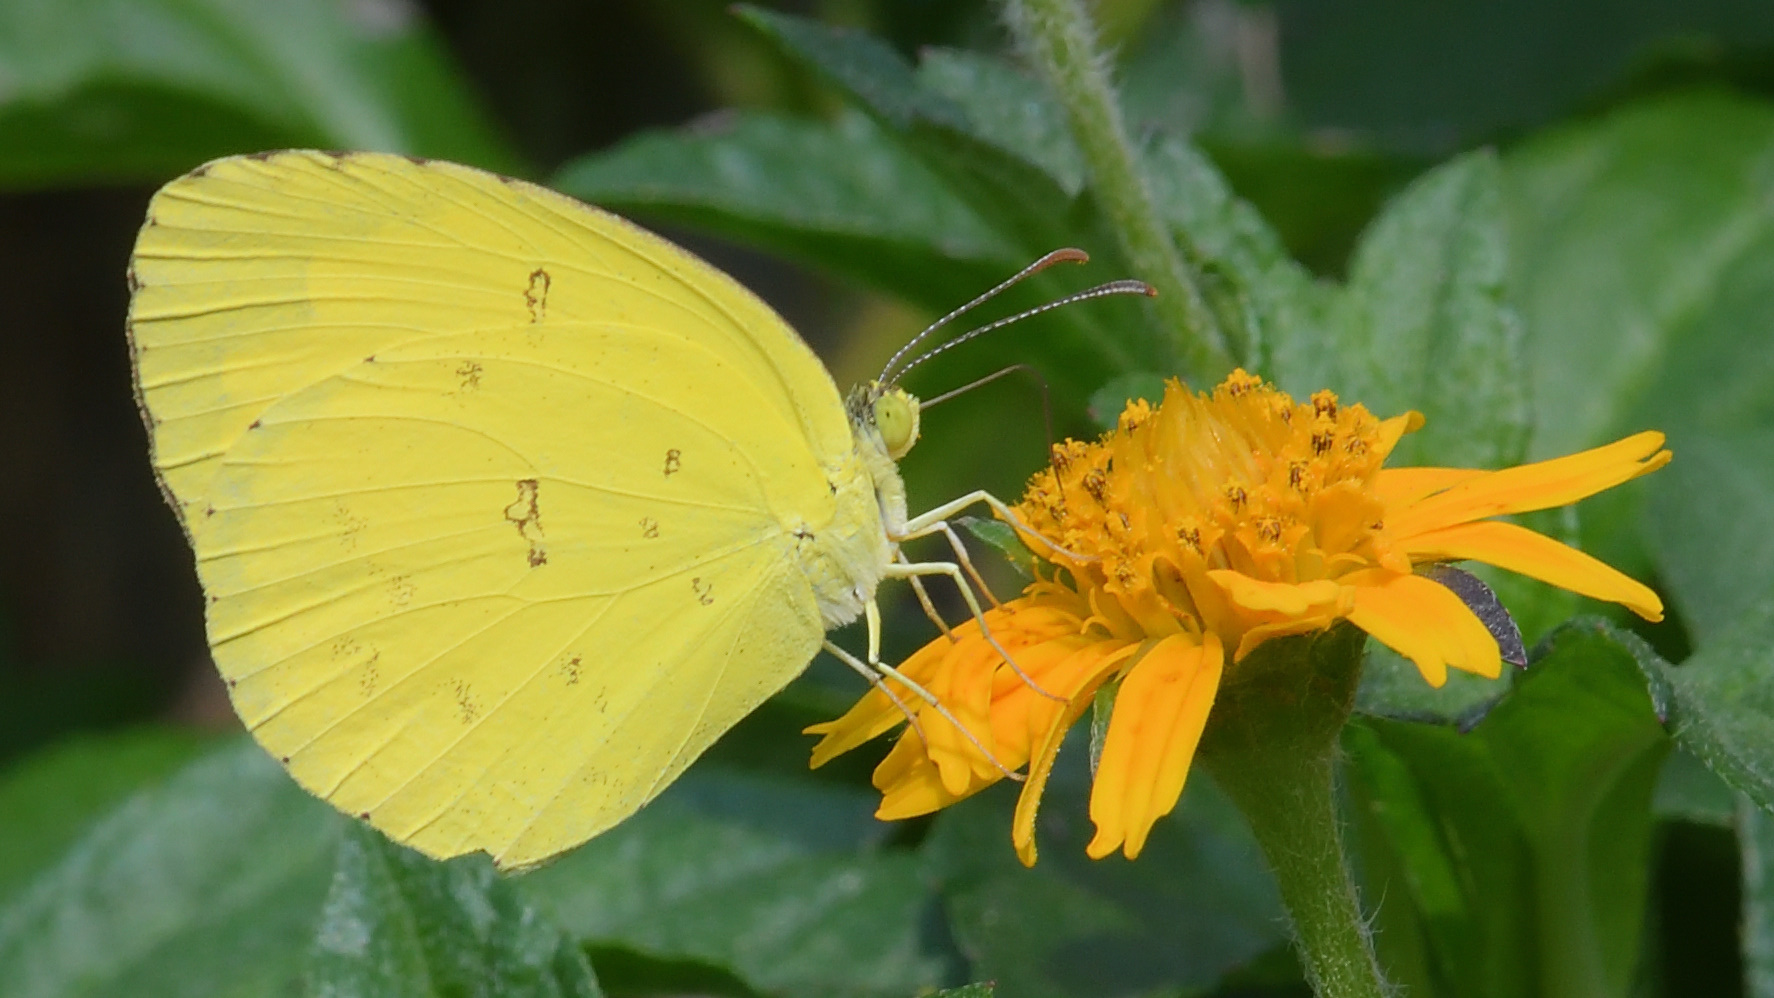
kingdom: Animalia
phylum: Arthropoda
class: Insecta
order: Lepidoptera
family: Pieridae
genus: Eurema
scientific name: Eurema hecabe
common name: Pale grass yellow
